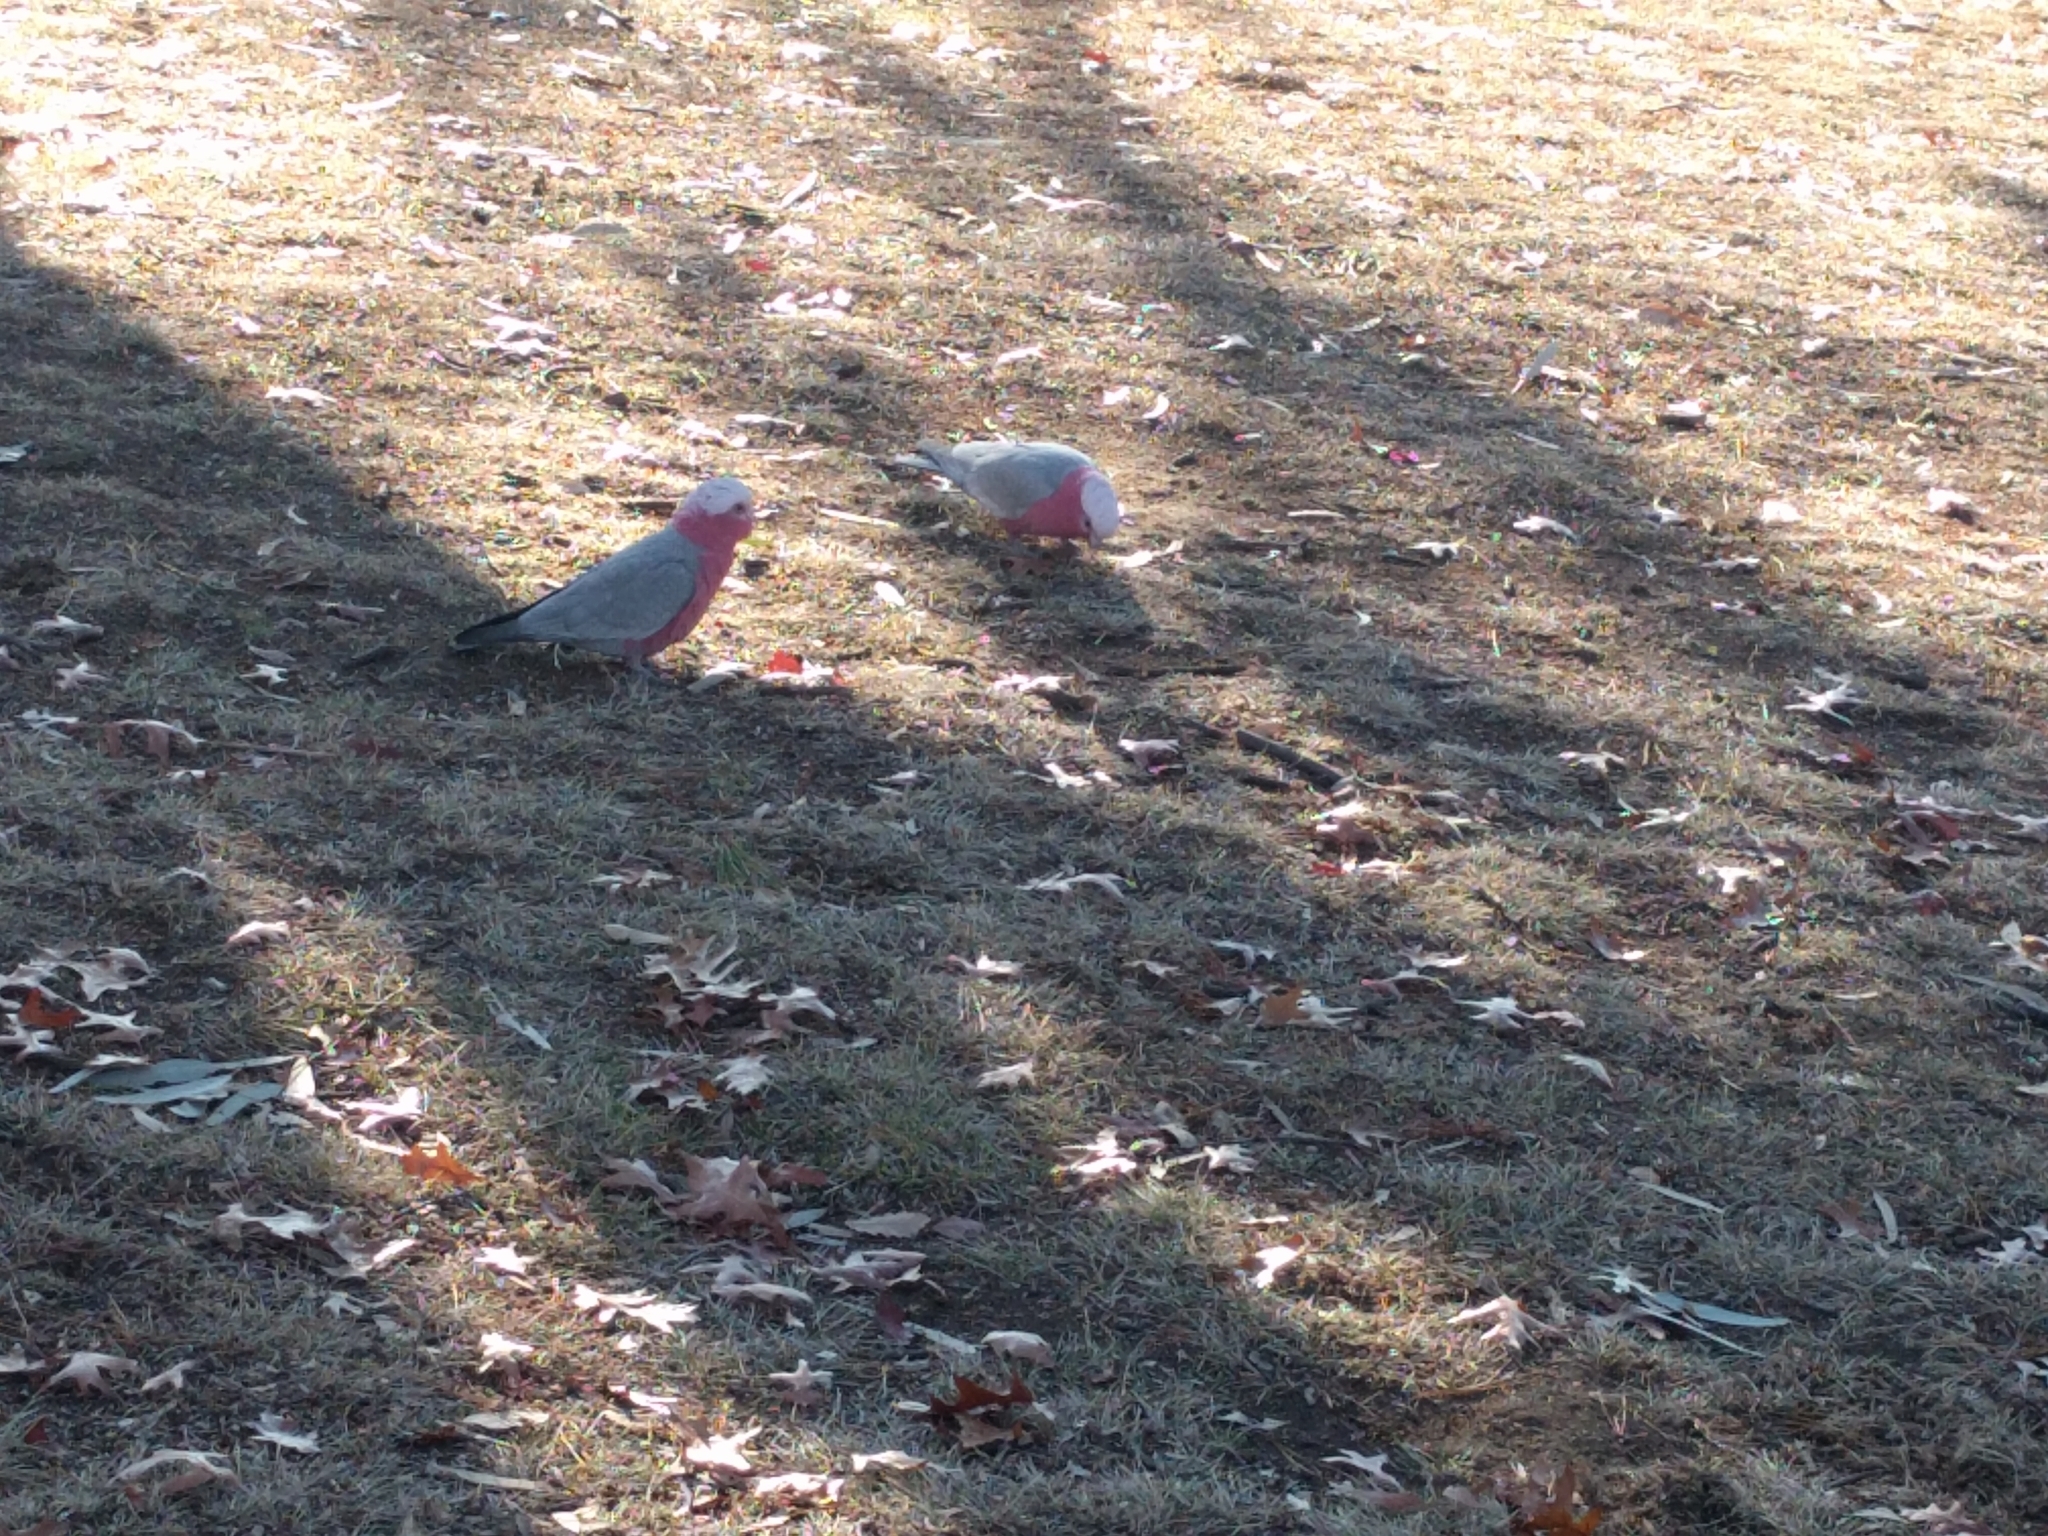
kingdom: Animalia
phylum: Chordata
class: Aves
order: Psittaciformes
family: Psittacidae
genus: Eolophus
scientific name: Eolophus roseicapilla
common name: Galah
